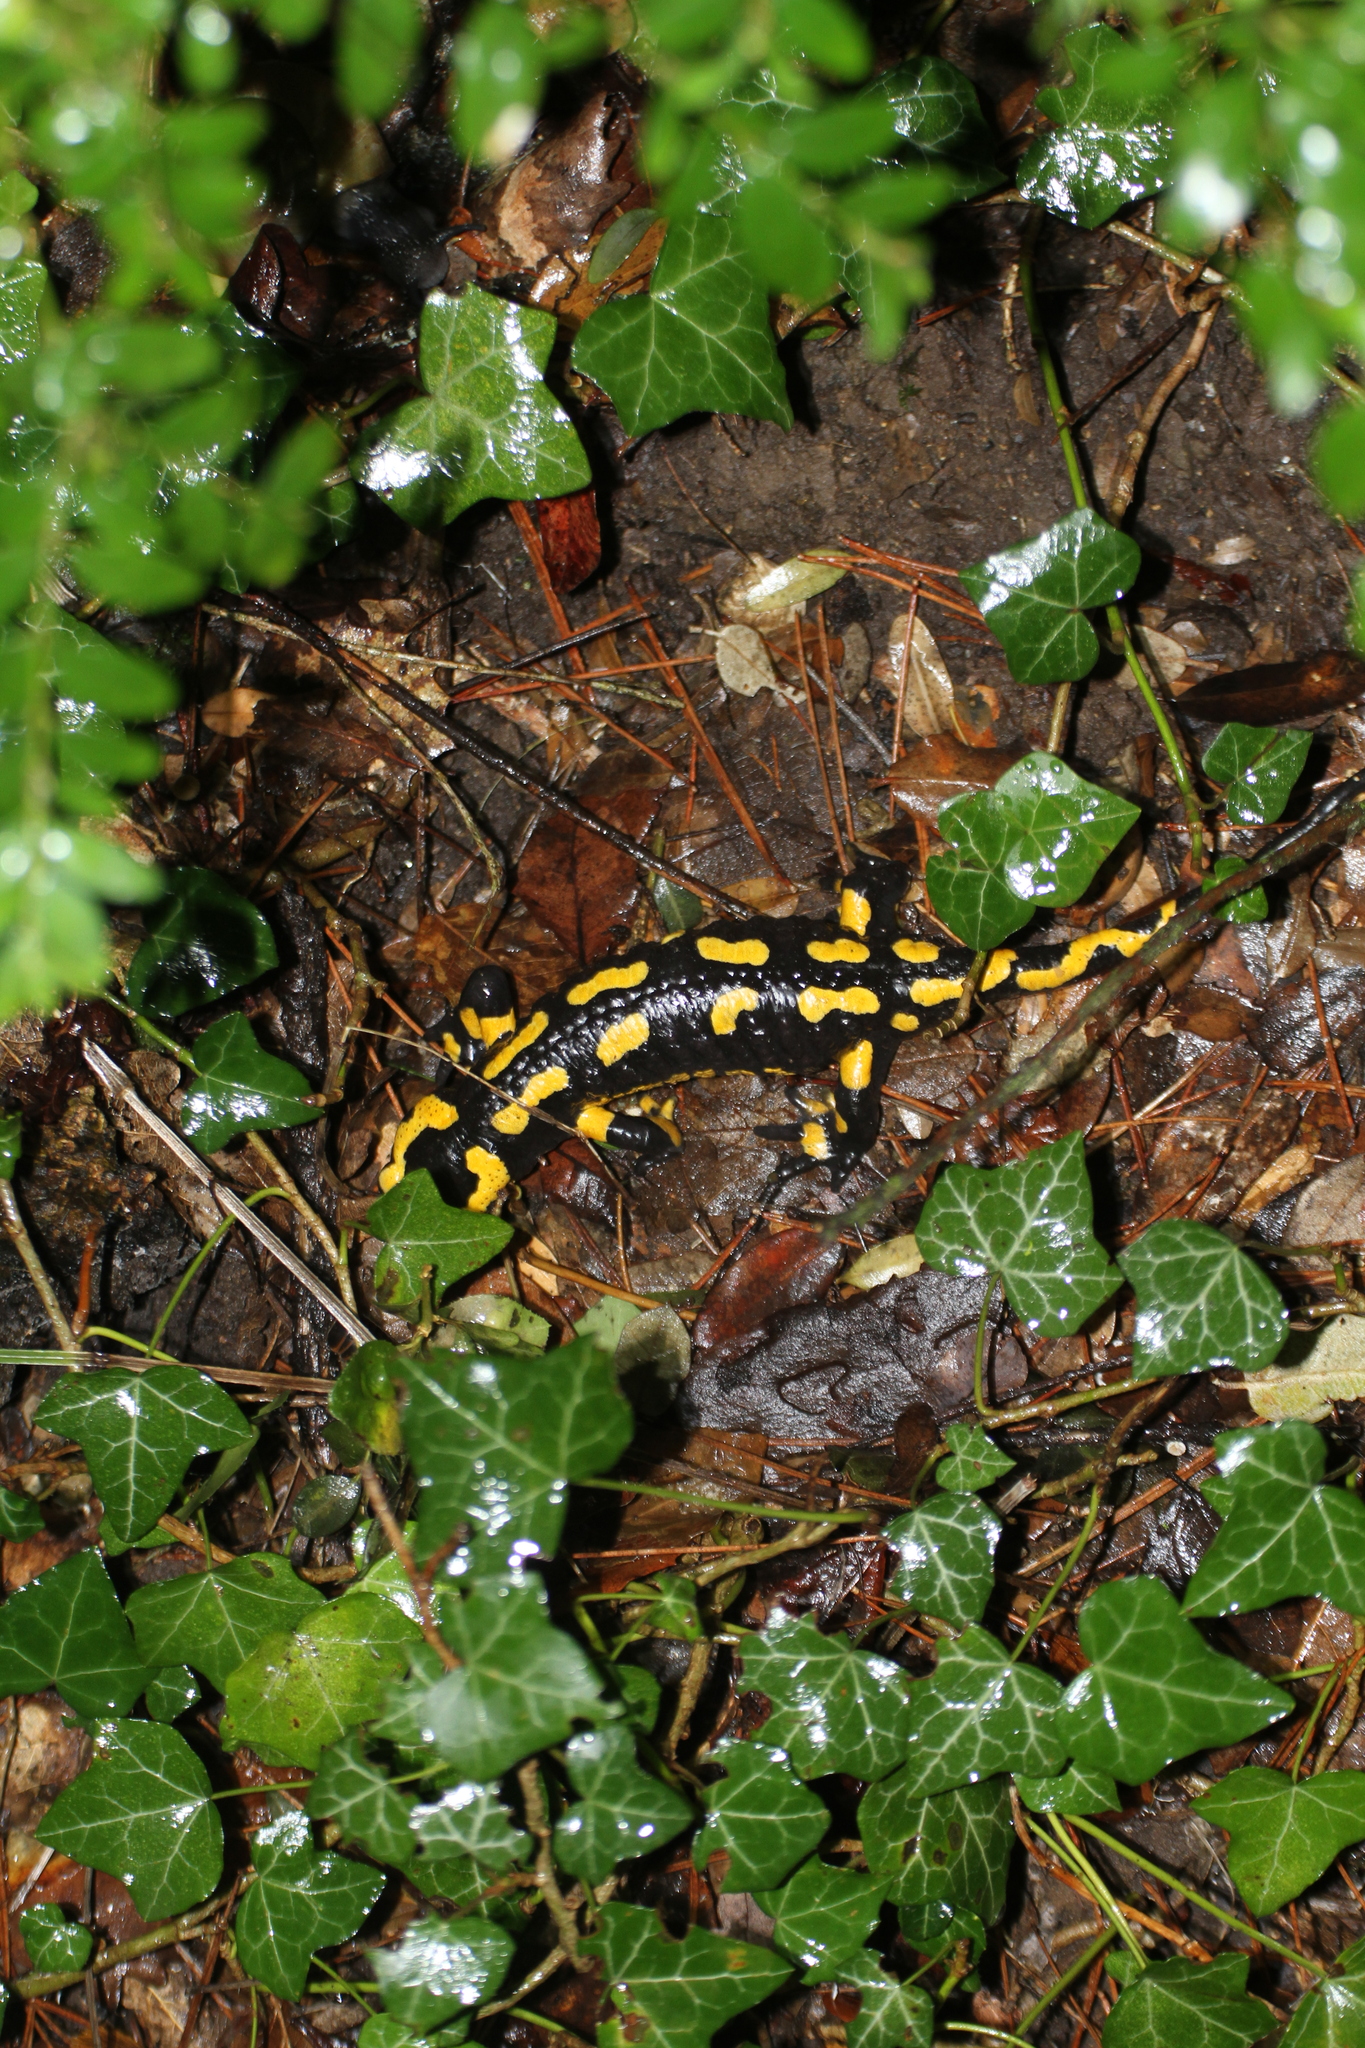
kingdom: Animalia
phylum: Chordata
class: Amphibia
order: Caudata
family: Salamandridae
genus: Salamandra
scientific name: Salamandra salamandra
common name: Fire salamander
